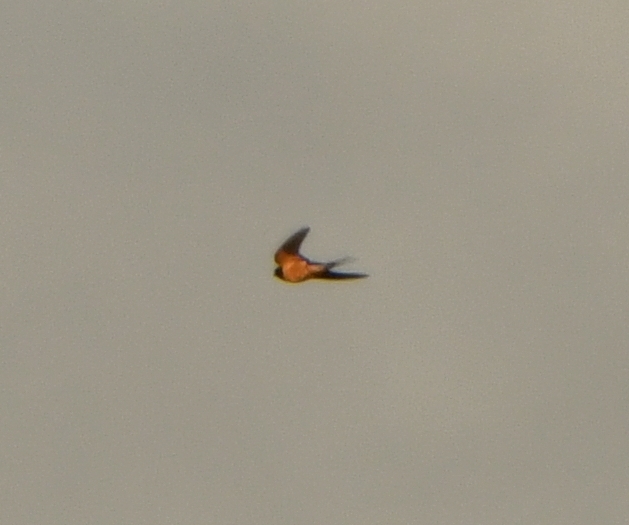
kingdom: Animalia
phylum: Chordata
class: Aves
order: Passeriformes
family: Hirundinidae
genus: Hirundo
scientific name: Hirundo rustica
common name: Barn swallow
